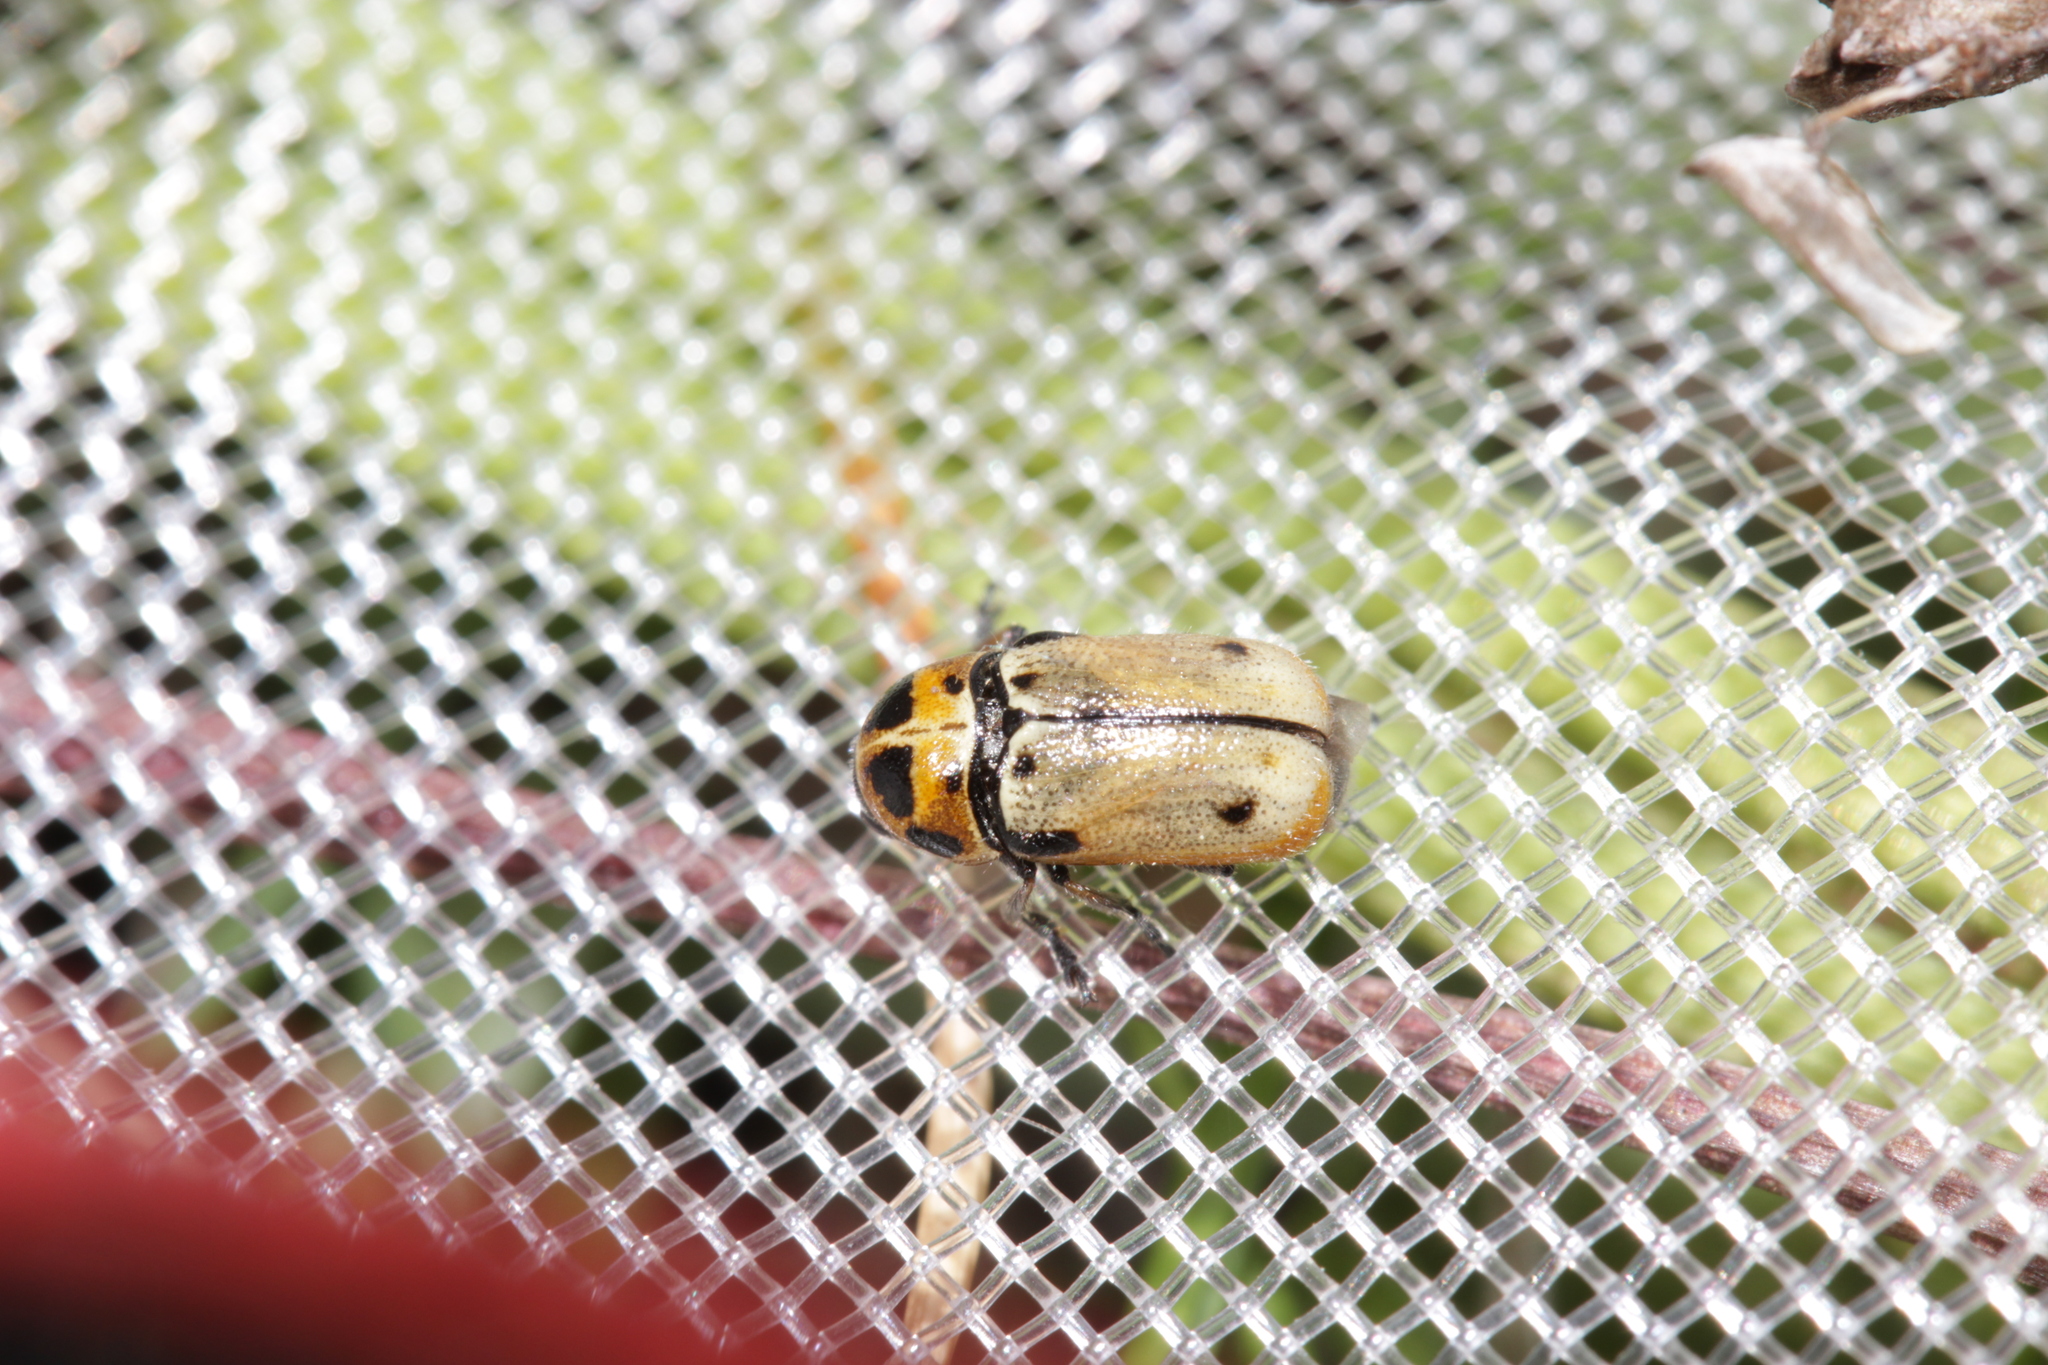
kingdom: Animalia
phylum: Arthropoda
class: Insecta
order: Coleoptera
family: Chrysomelidae
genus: Cryptocephalus
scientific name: Cryptocephalus quatuordecimmaculatus
